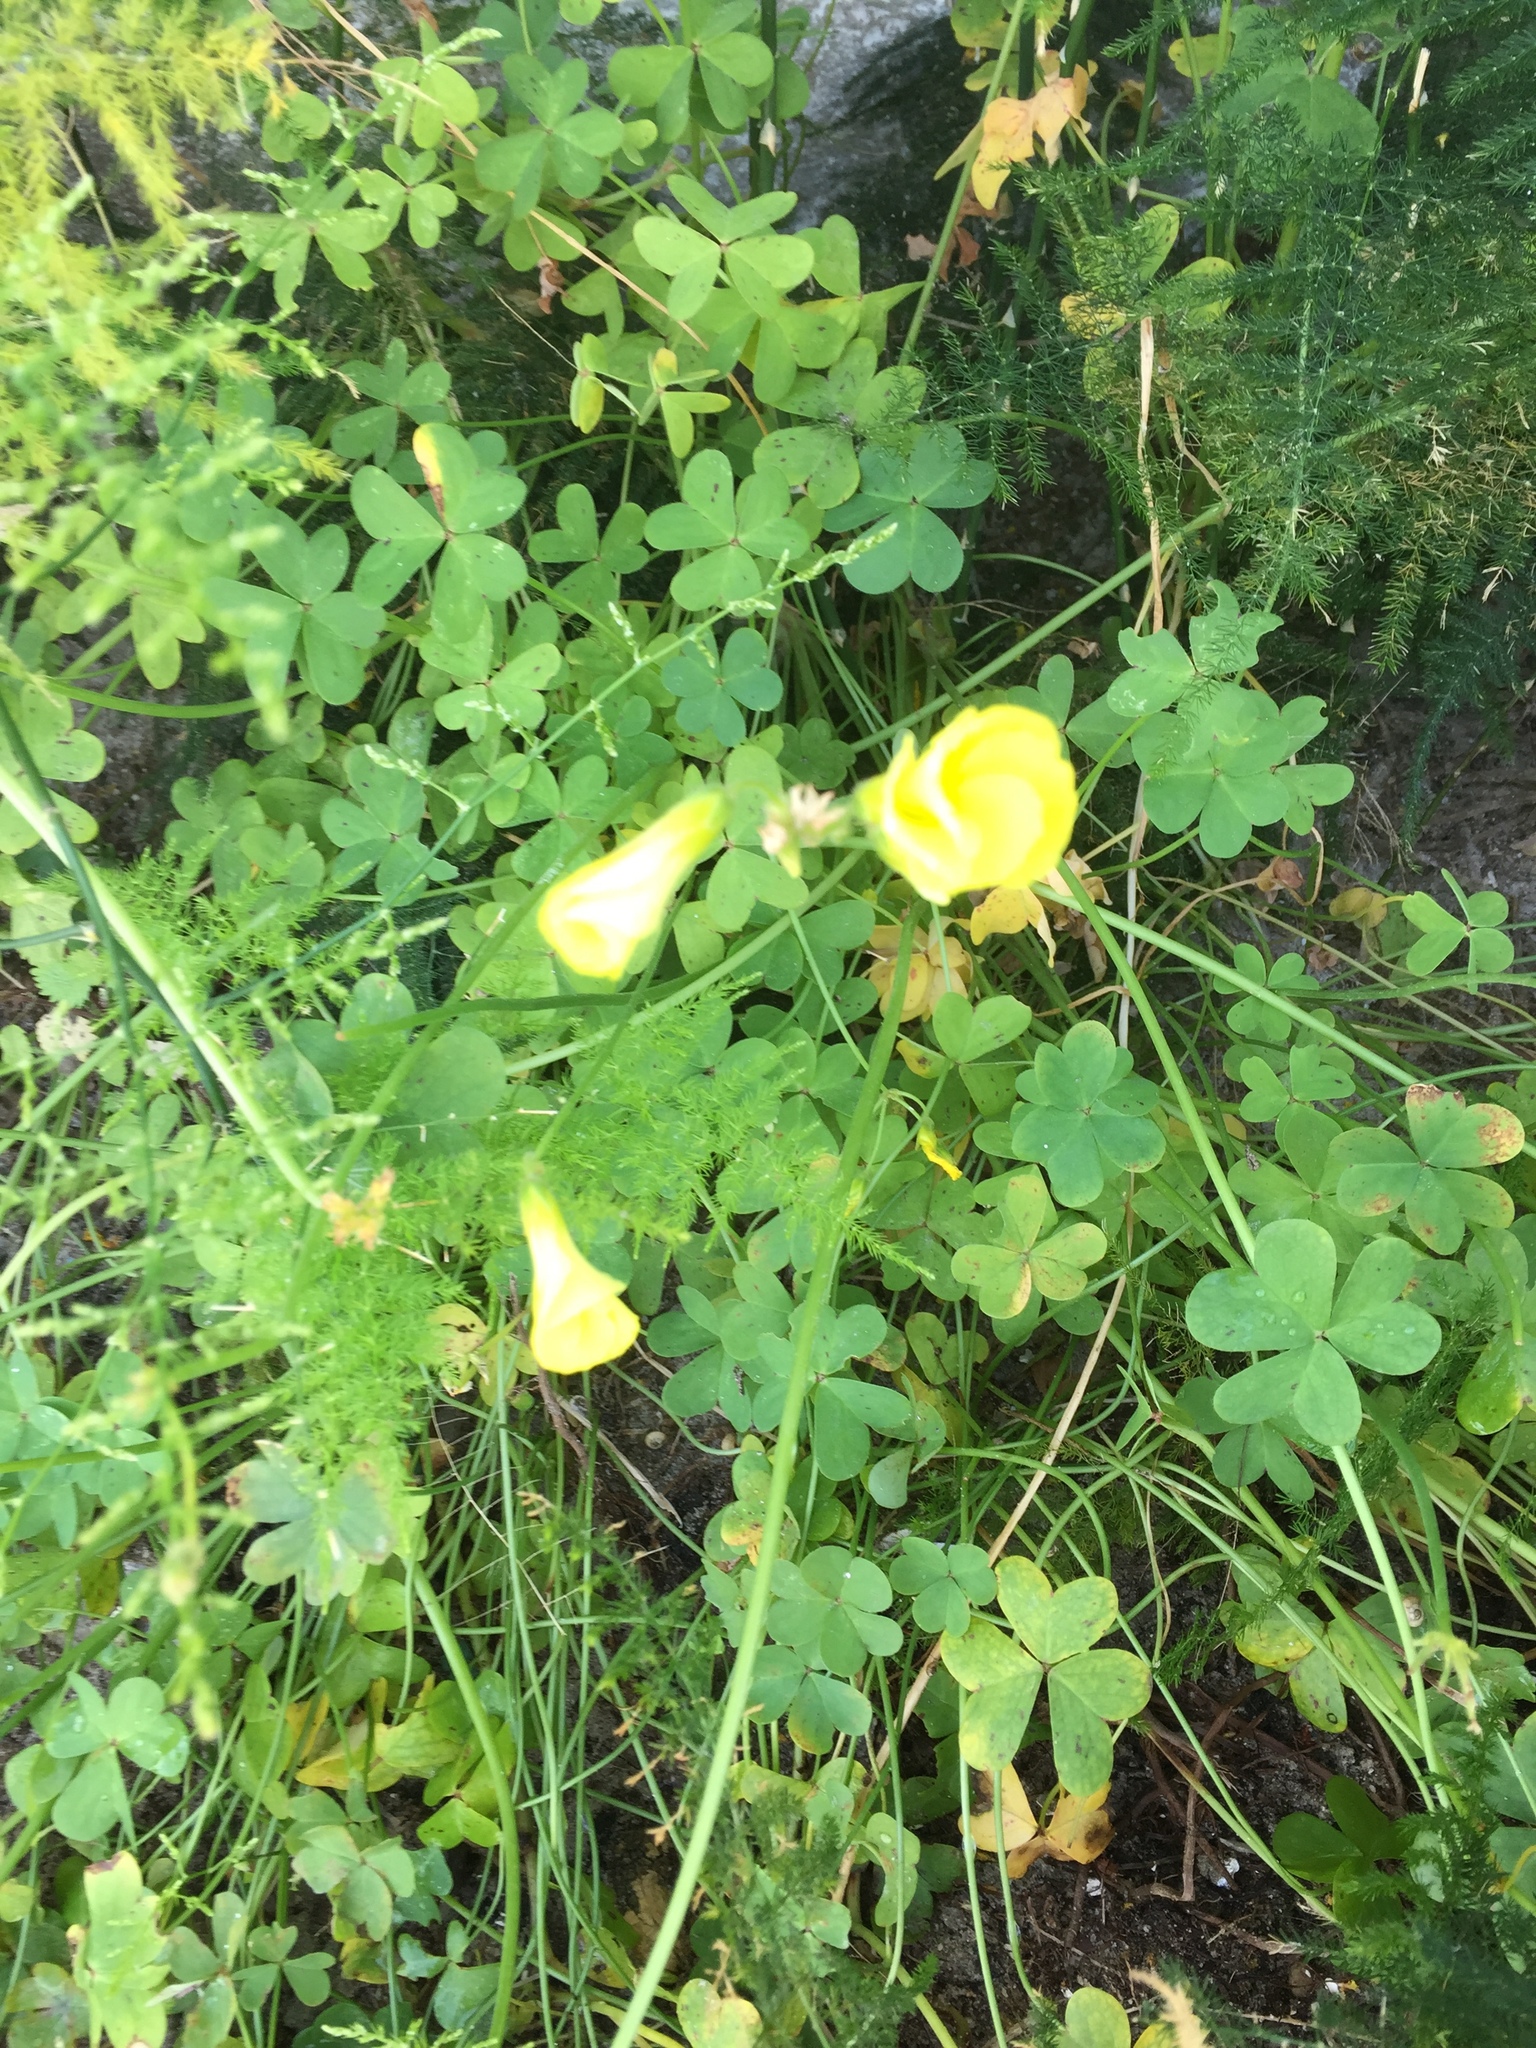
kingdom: Plantae
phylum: Tracheophyta
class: Magnoliopsida
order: Oxalidales
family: Oxalidaceae
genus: Oxalis
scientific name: Oxalis pes-caprae
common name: Bermuda-buttercup
